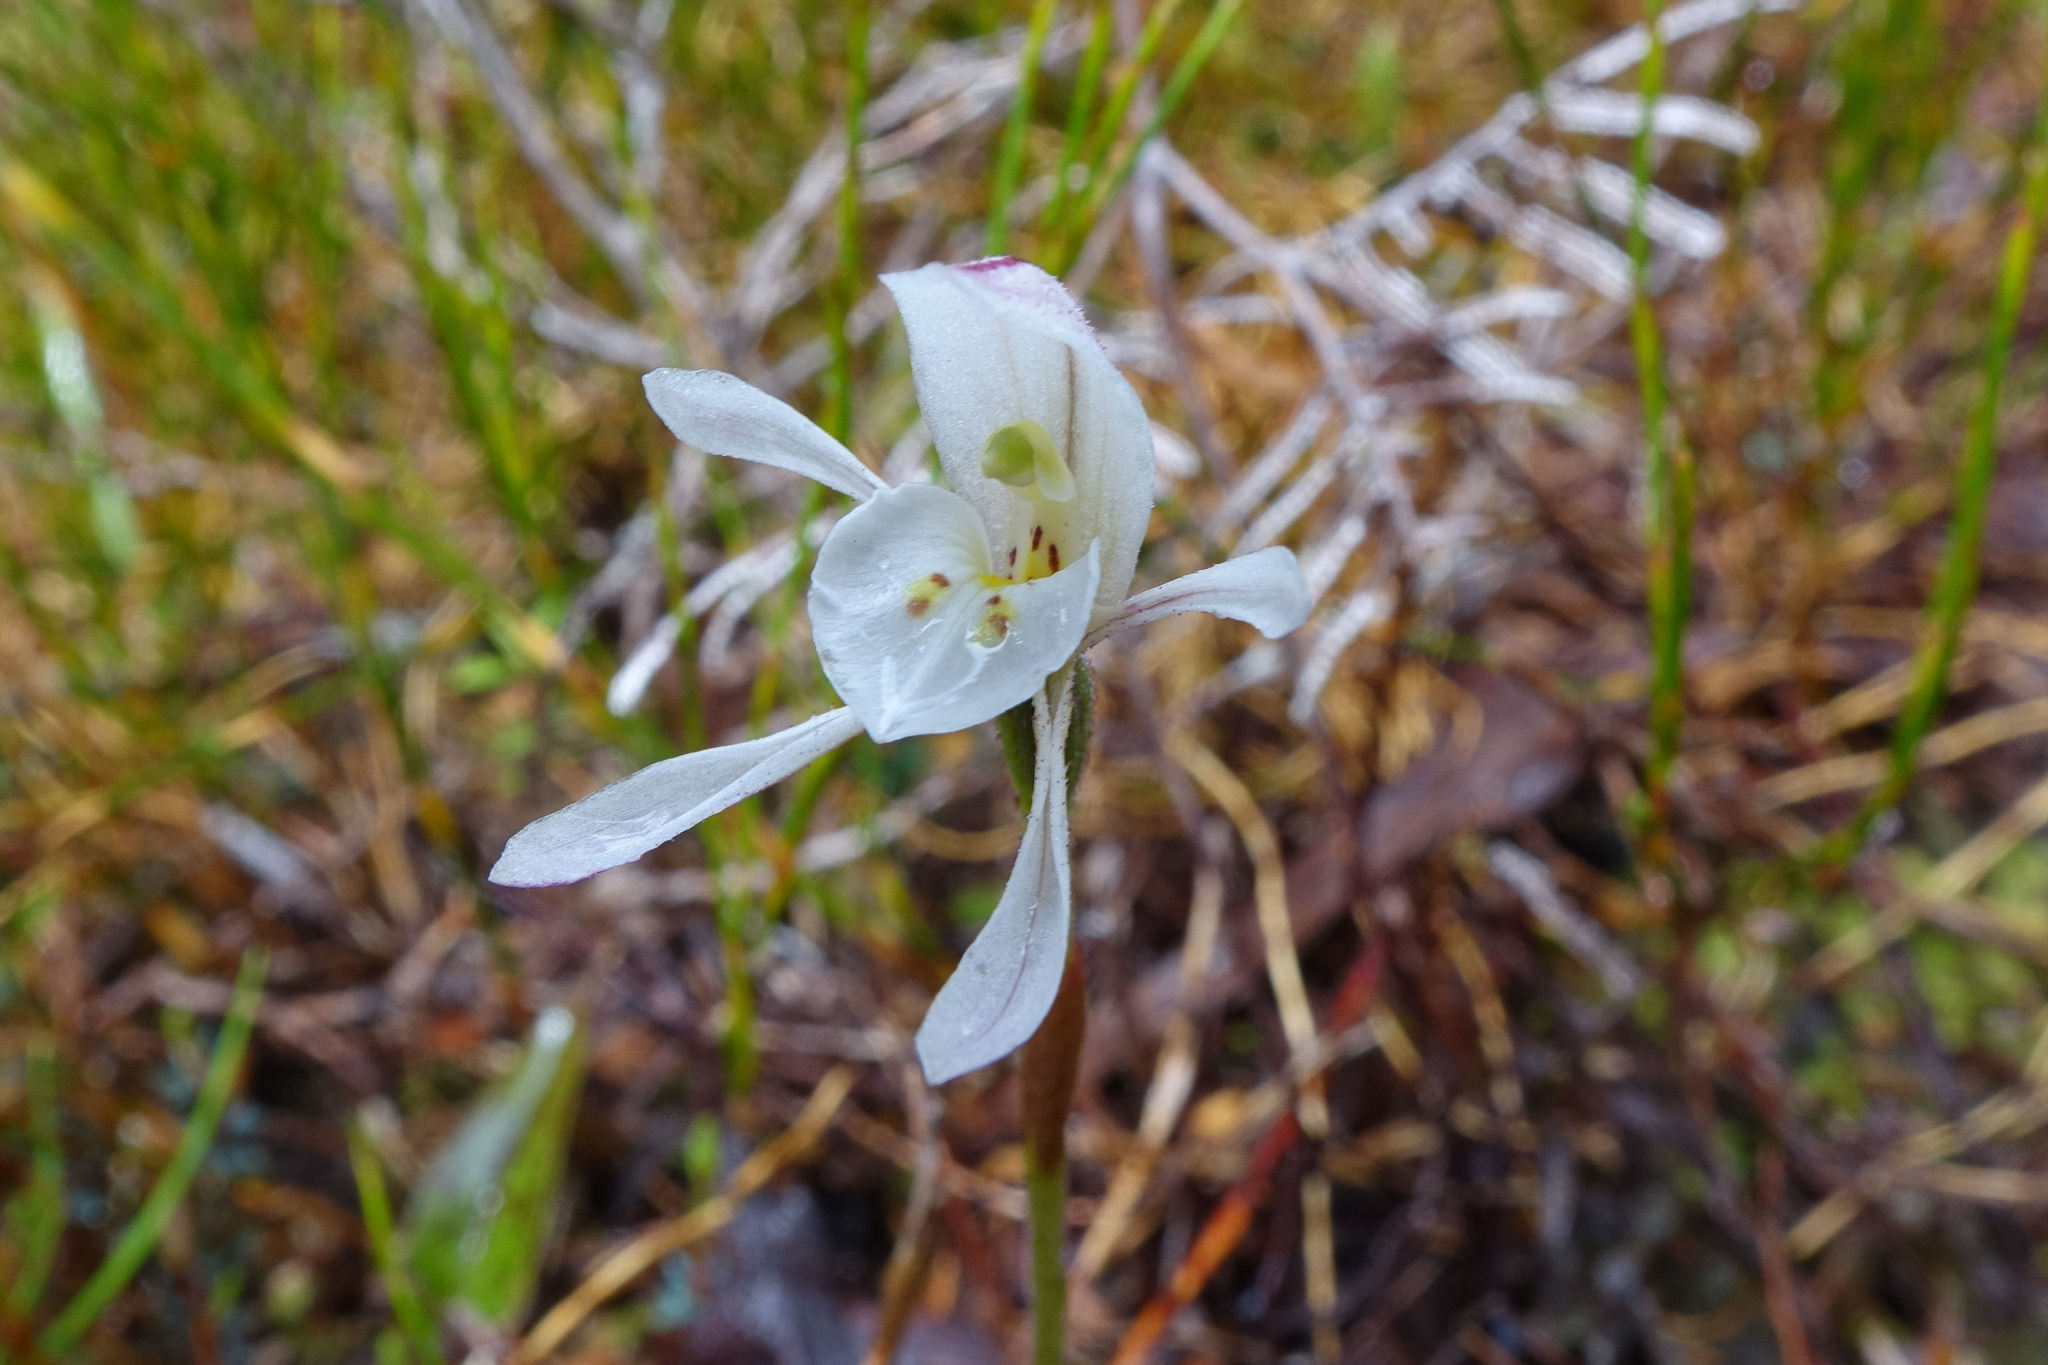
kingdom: Plantae
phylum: Tracheophyta
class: Liliopsida
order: Asparagales
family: Orchidaceae
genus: Aporostylis
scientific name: Aporostylis bifolia
